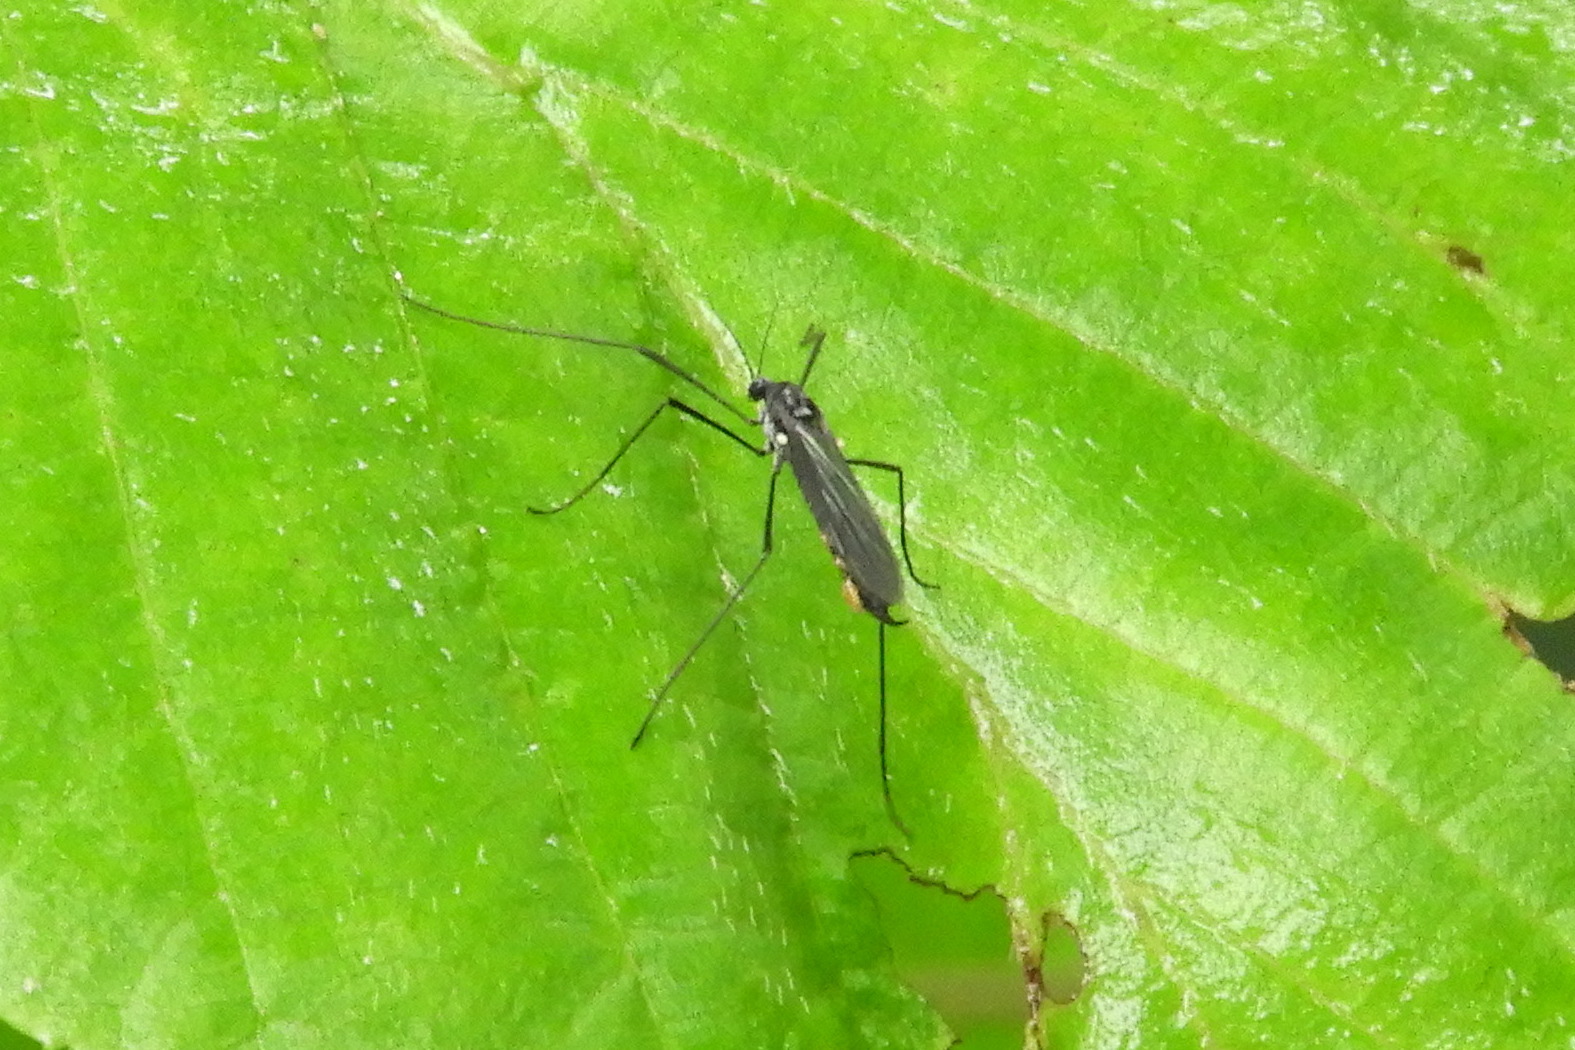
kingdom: Animalia
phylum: Arthropoda
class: Insecta
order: Diptera
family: Limoniidae
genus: Gnophomyia
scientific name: Gnophomyia tristissima
